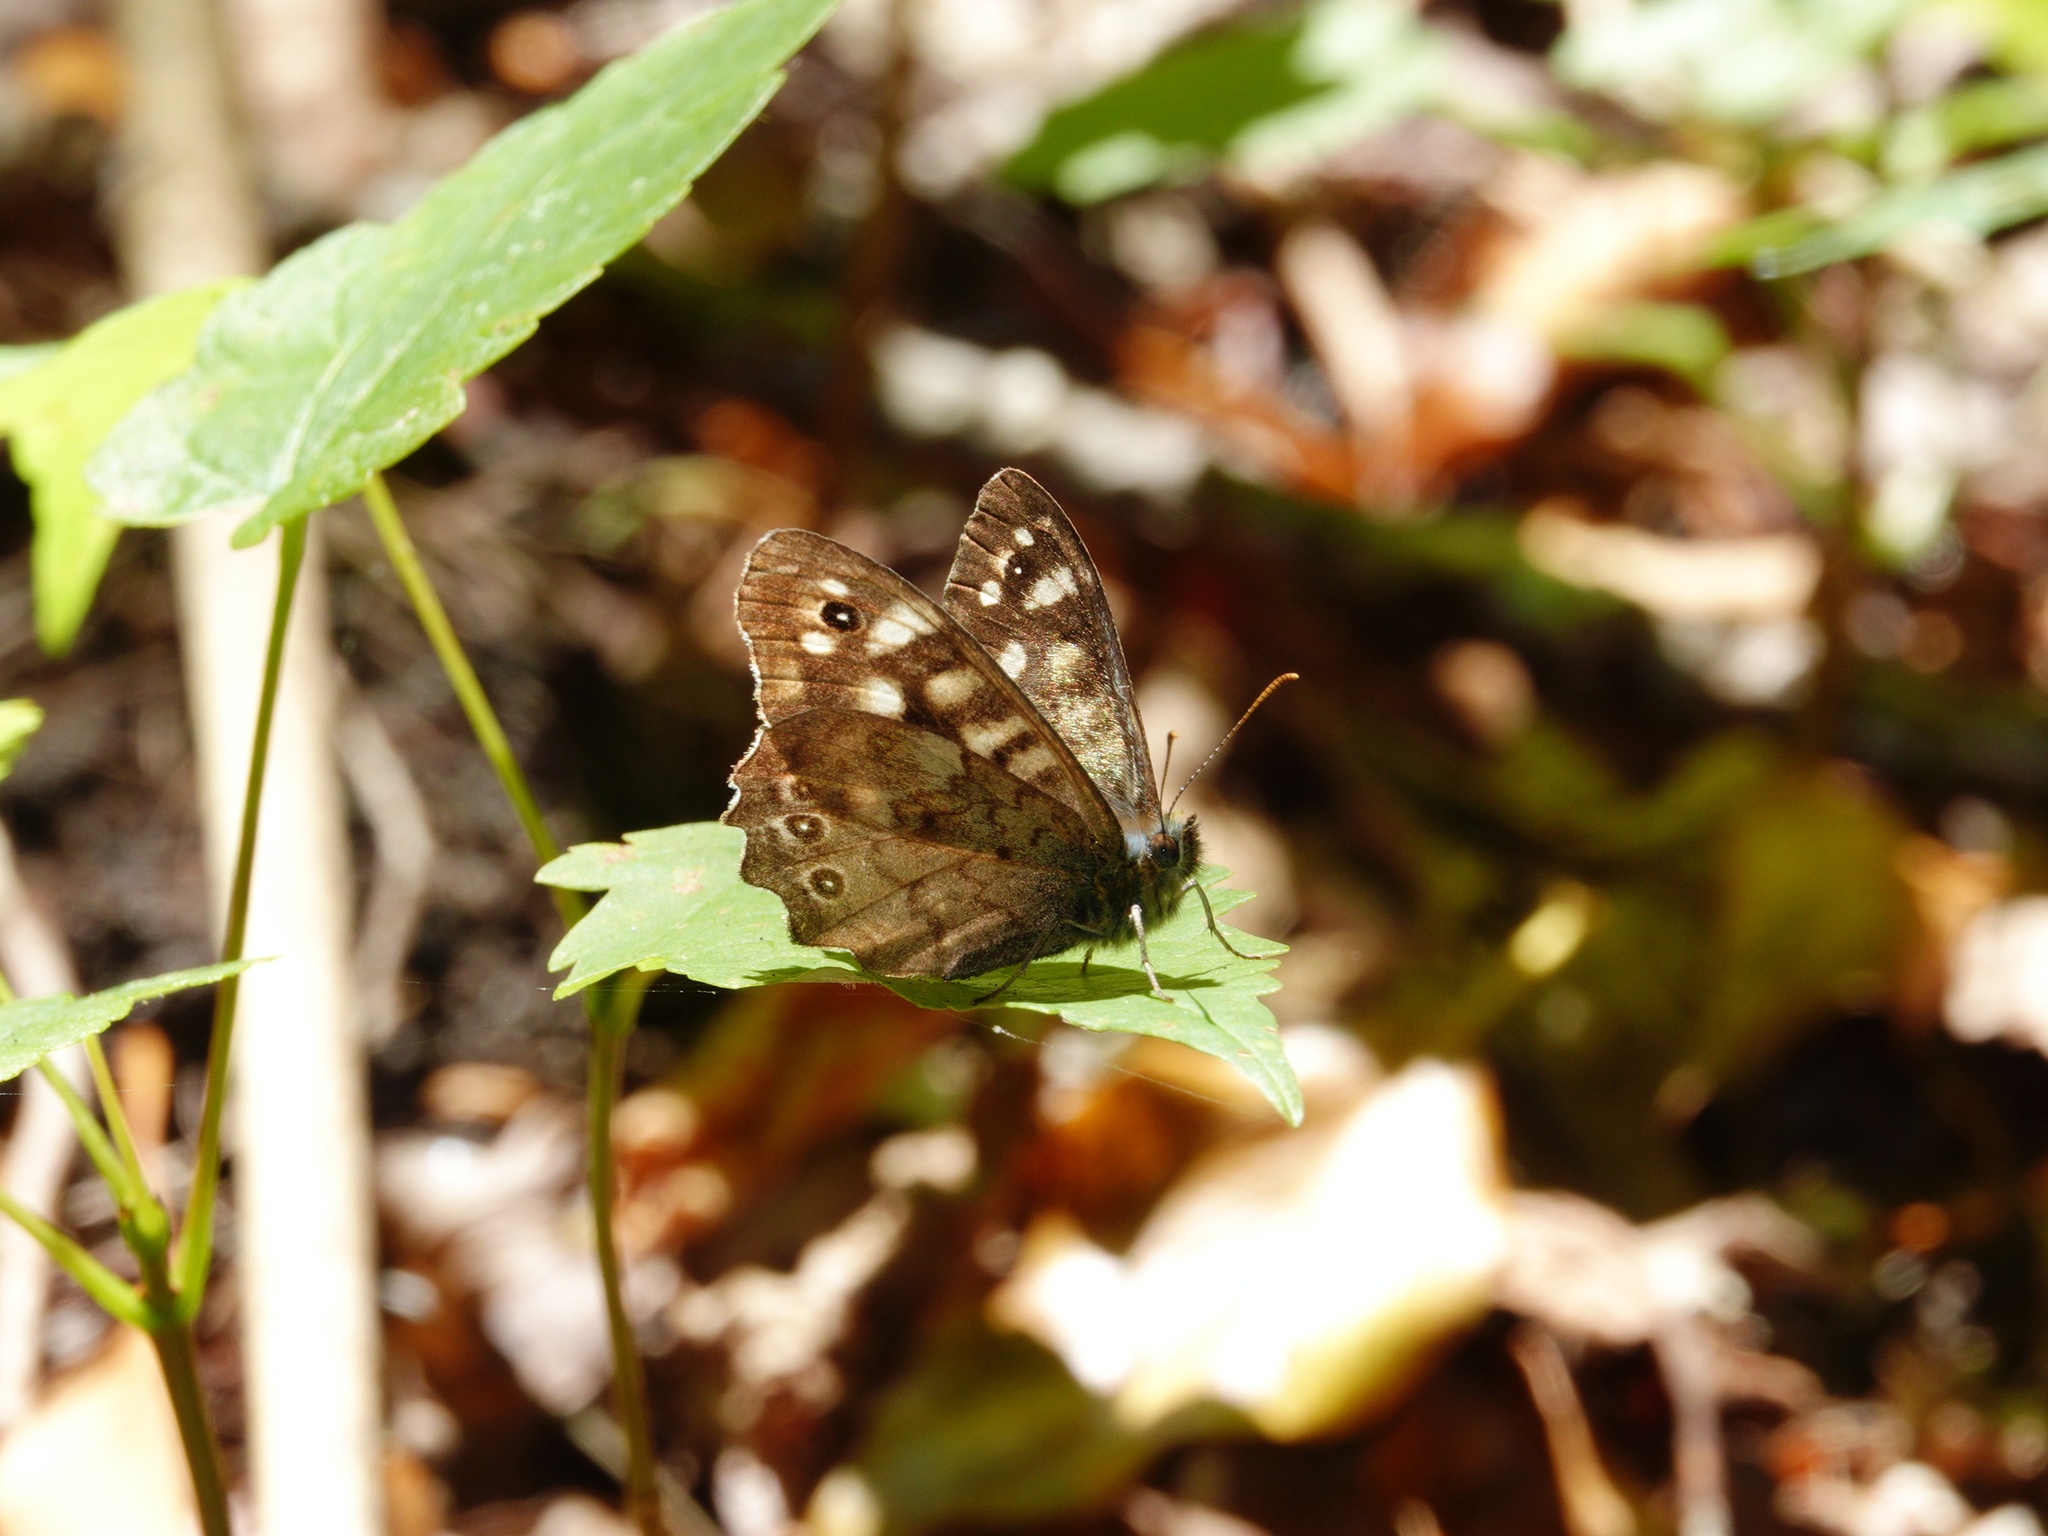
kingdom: Animalia
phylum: Arthropoda
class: Insecta
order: Lepidoptera
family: Nymphalidae
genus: Pararge
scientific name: Pararge aegeria
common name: Speckled wood
